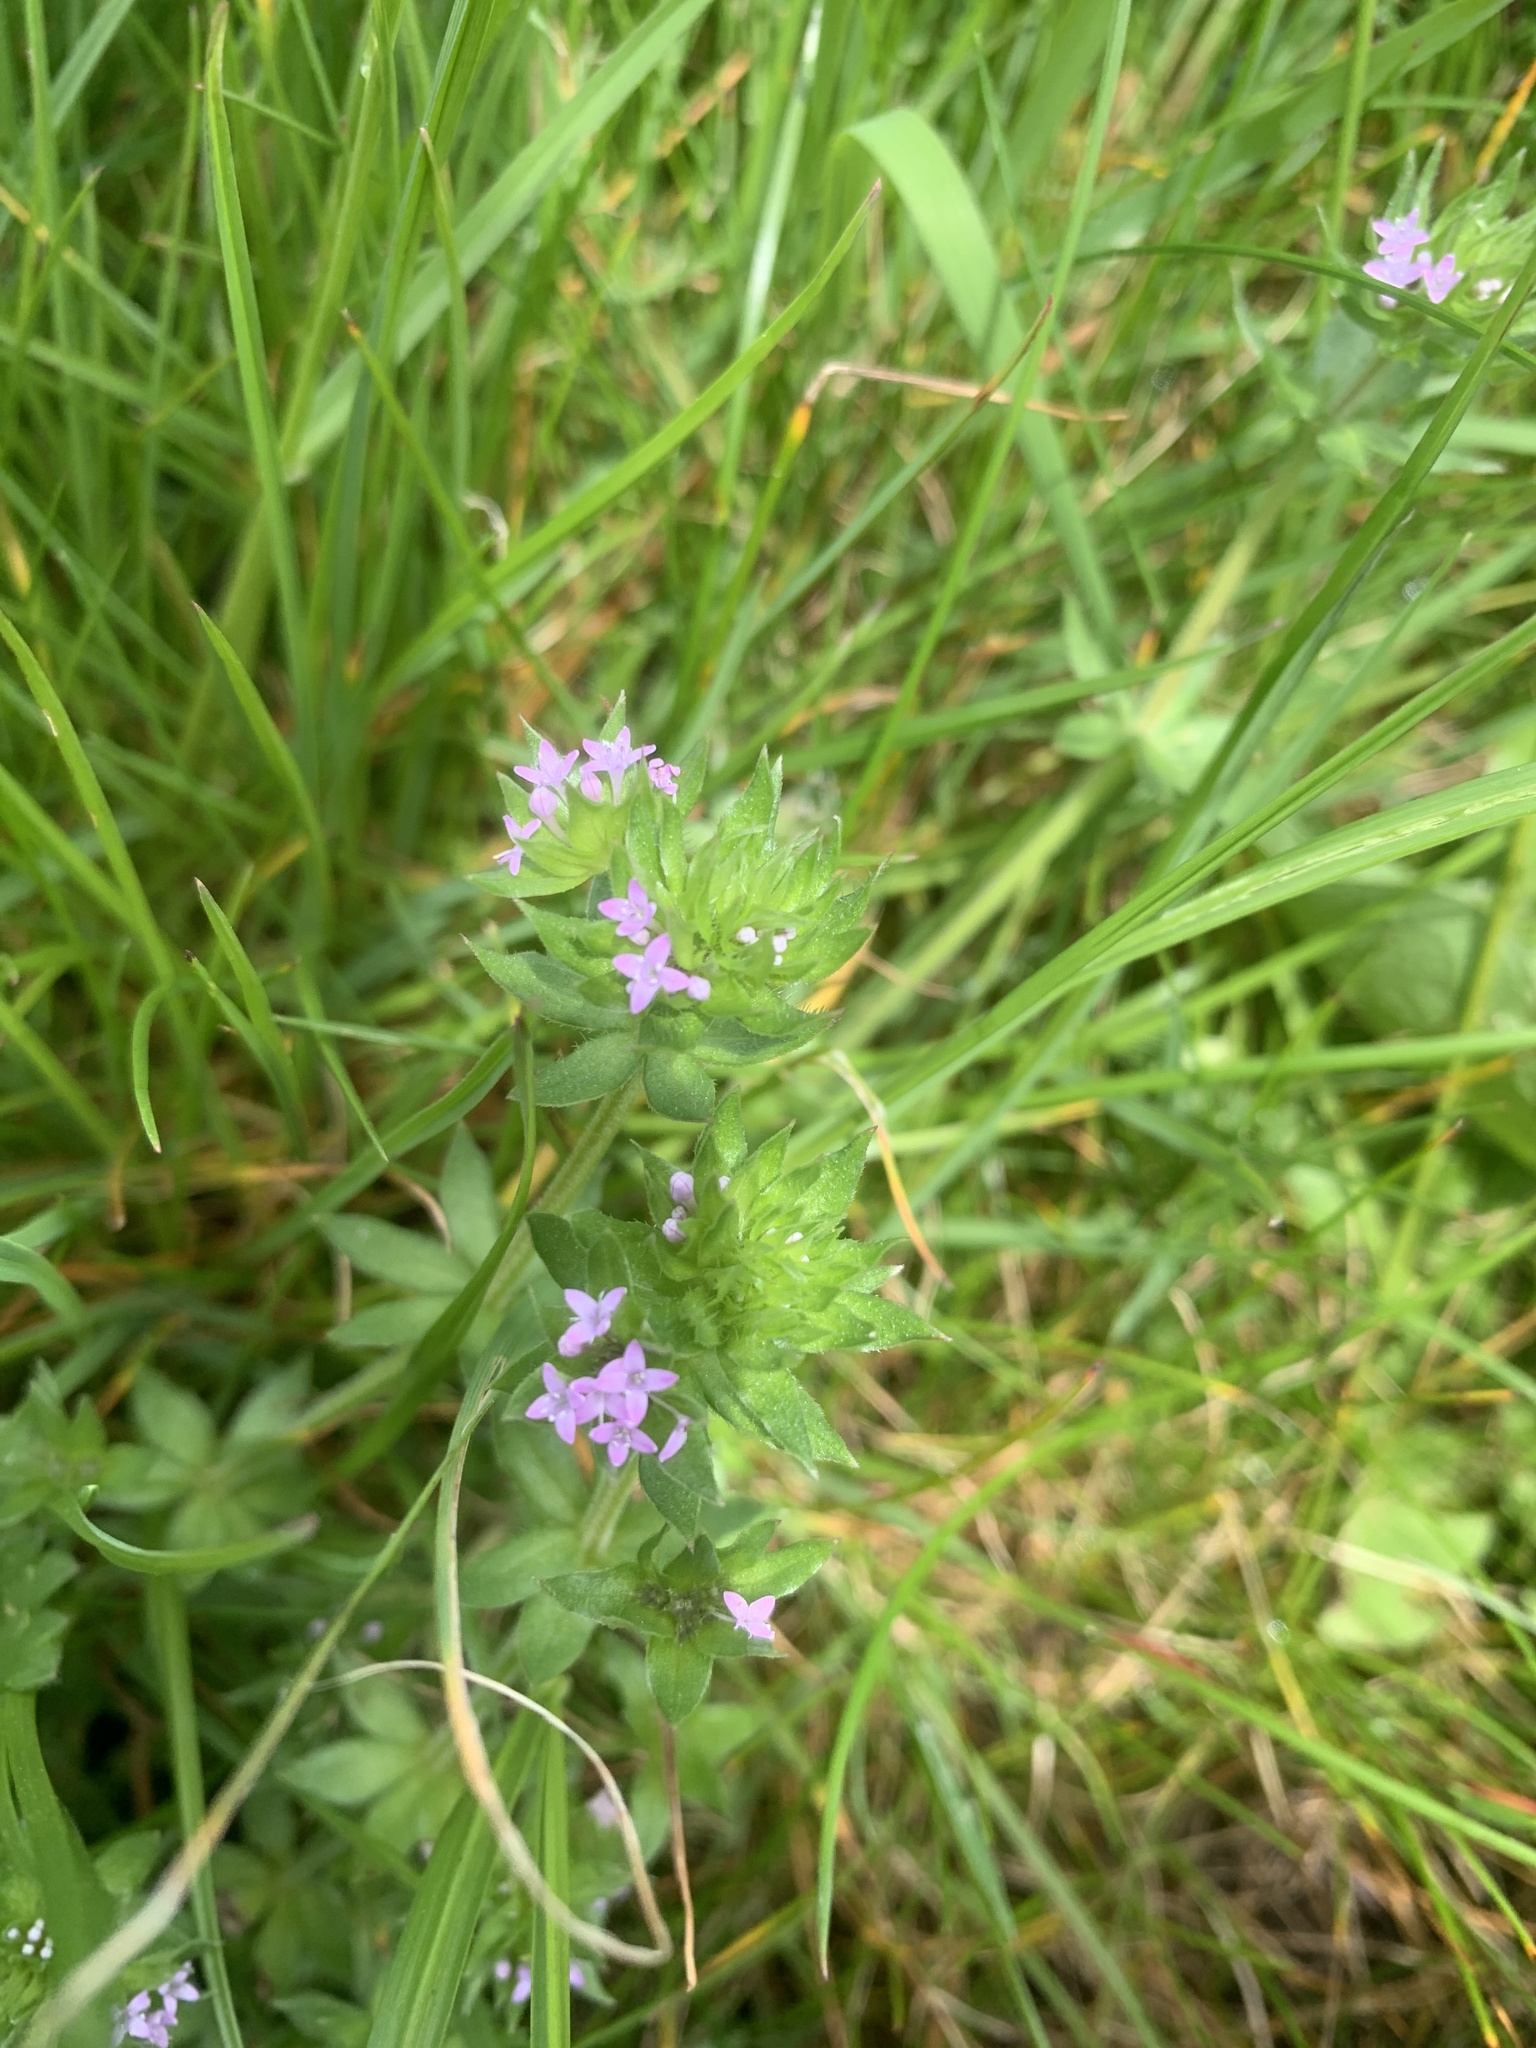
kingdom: Plantae
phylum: Tracheophyta
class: Magnoliopsida
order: Gentianales
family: Rubiaceae
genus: Sherardia
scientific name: Sherardia arvensis
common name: Field madder
